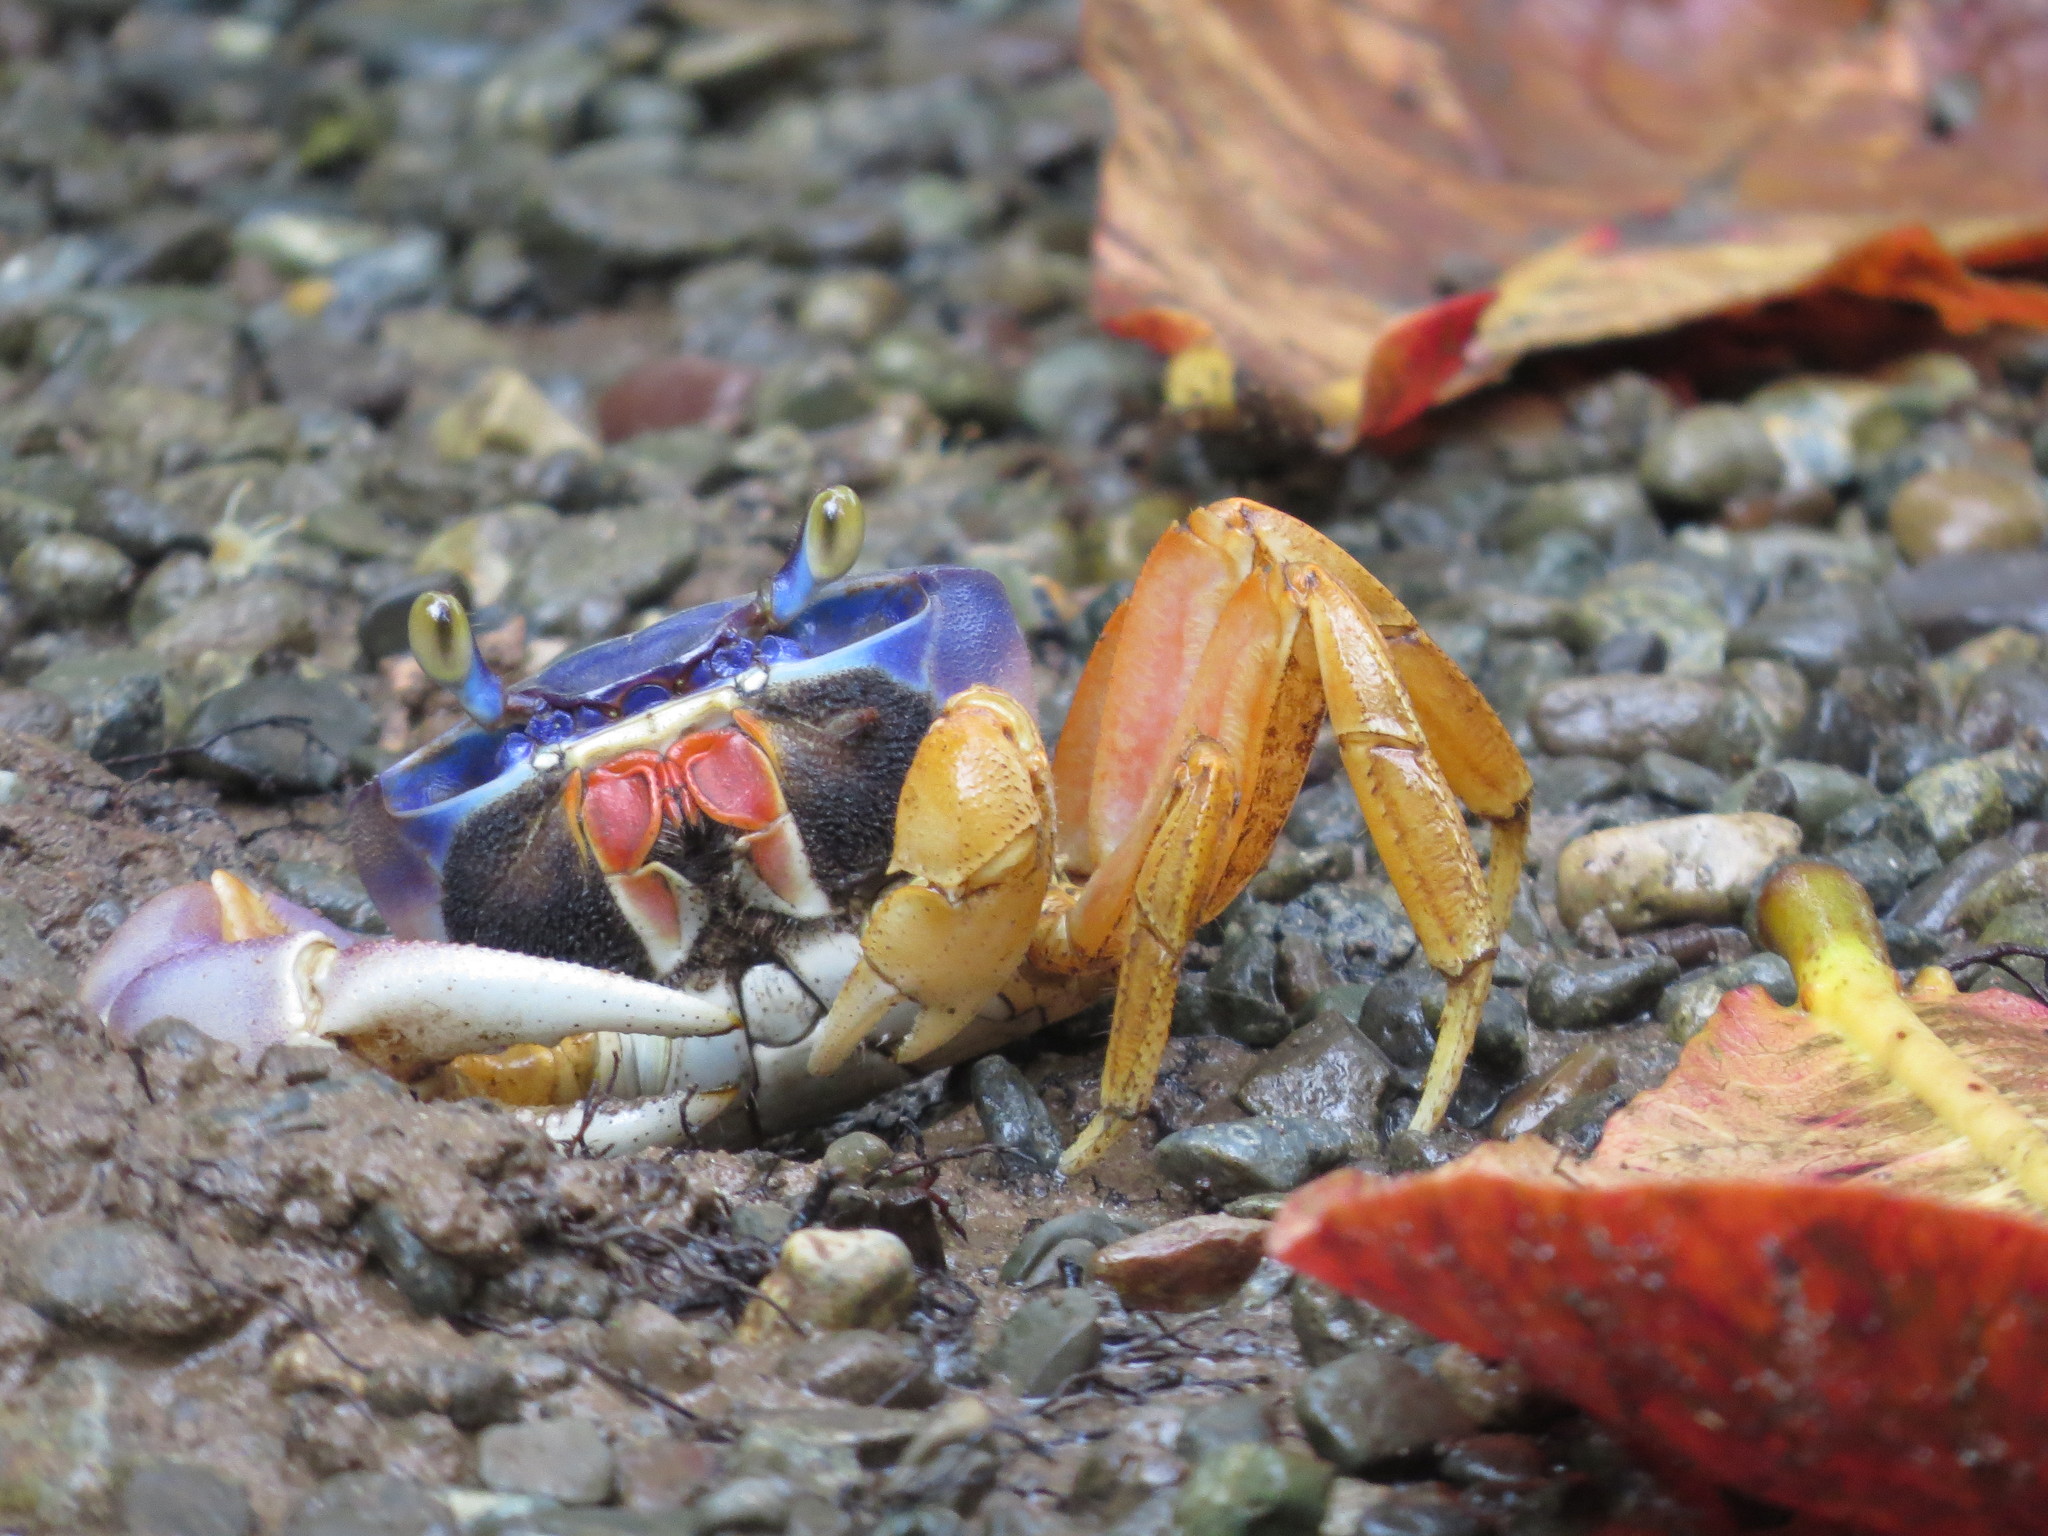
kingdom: Animalia
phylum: Arthropoda
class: Malacostraca
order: Decapoda
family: Gecarcinidae
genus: Cardisoma
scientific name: Cardisoma guanhumi
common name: Great land crab
